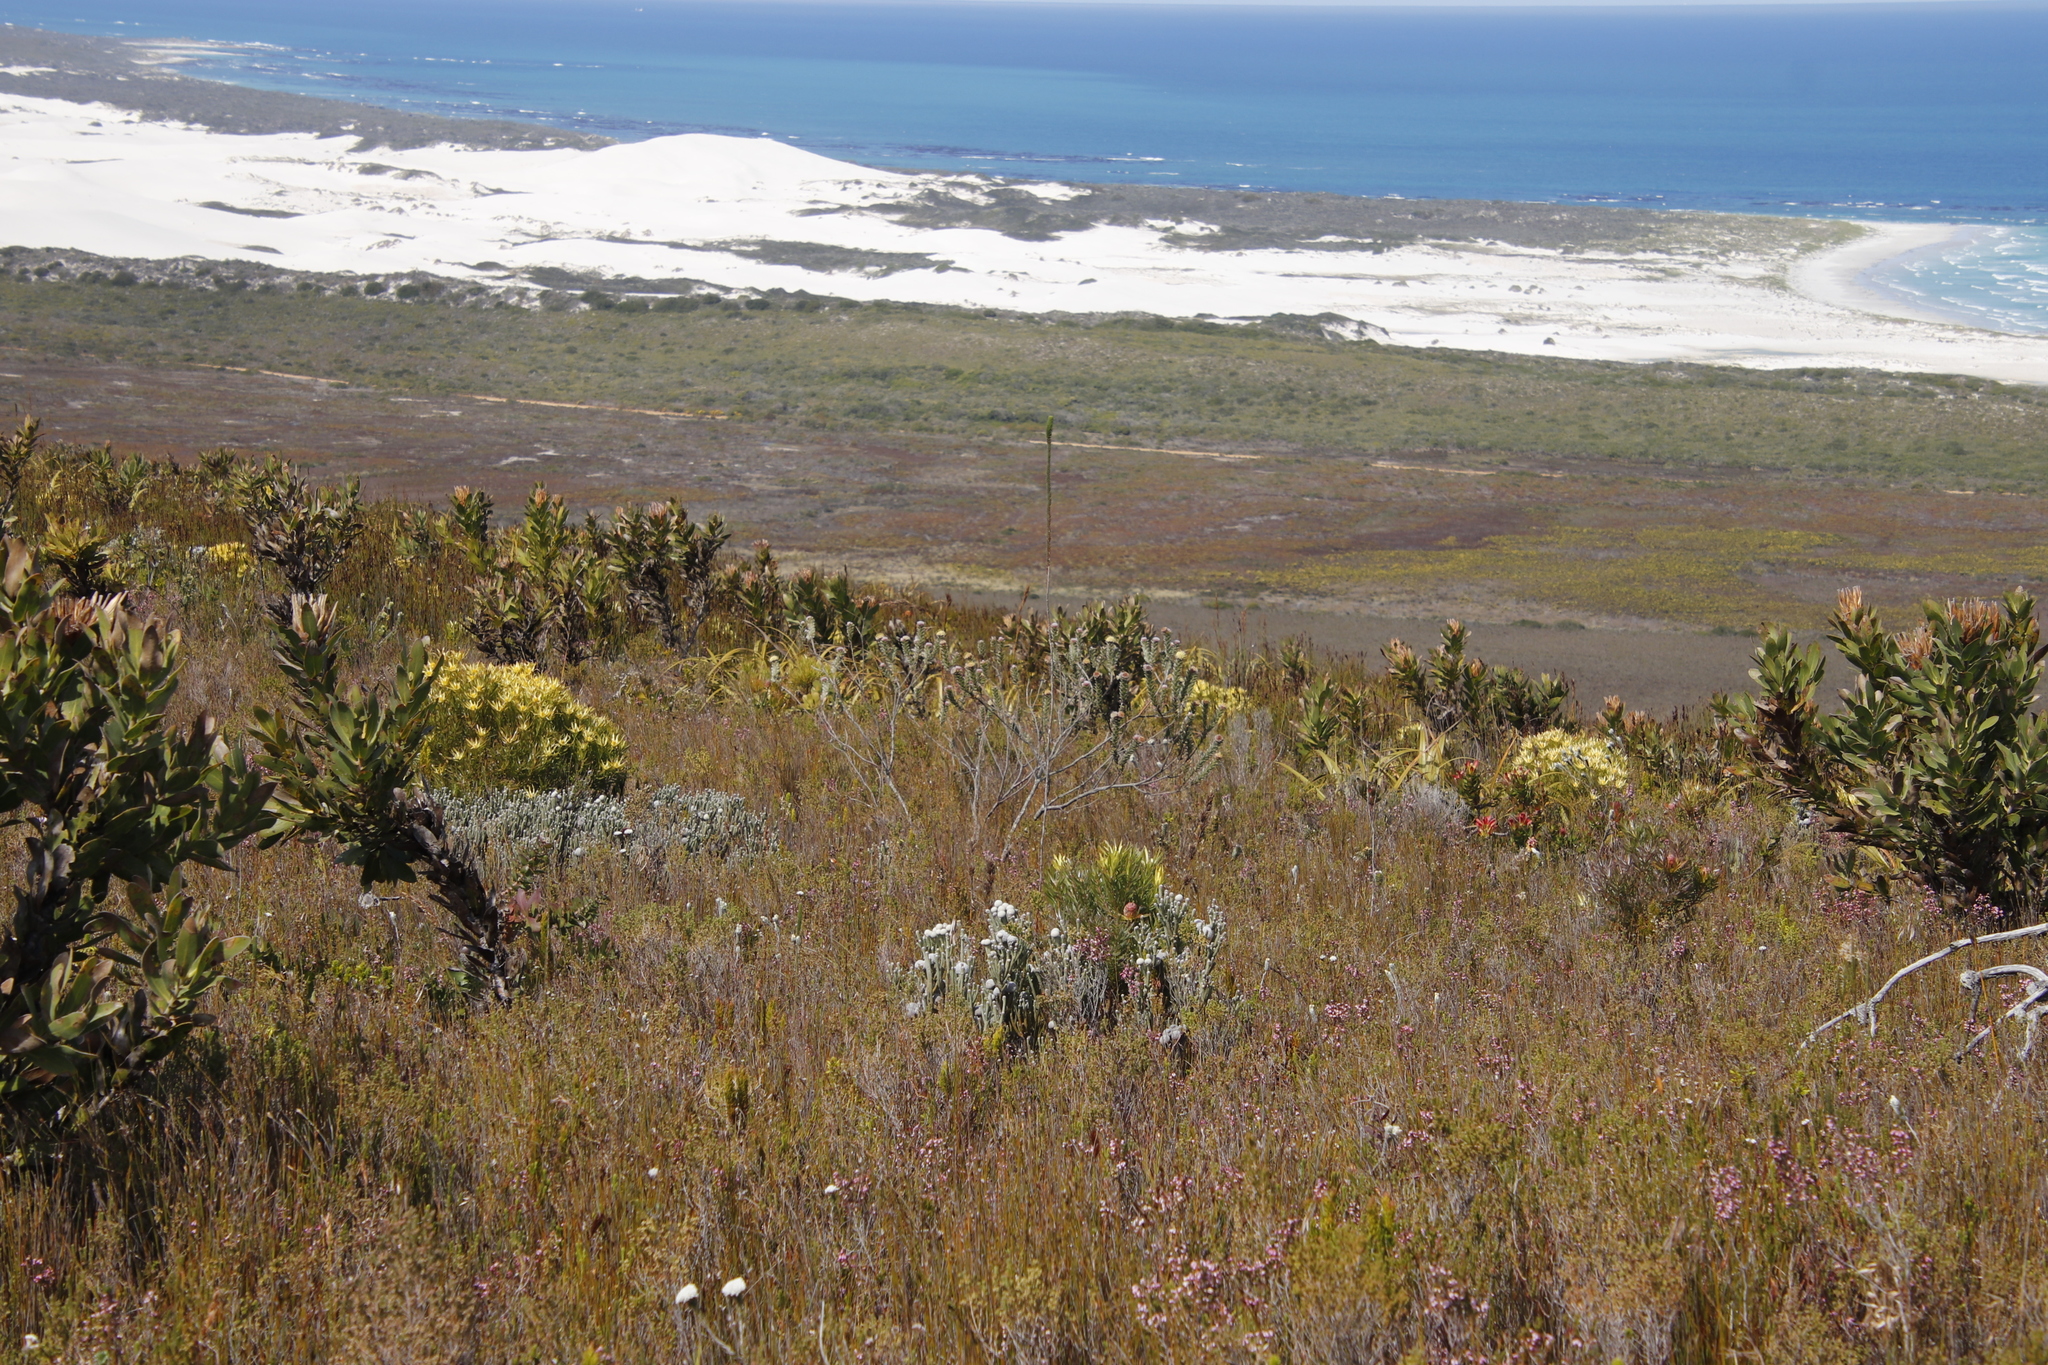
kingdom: Plantae
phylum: Tracheophyta
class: Magnoliopsida
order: Ericales
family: Ericaceae
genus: Erica
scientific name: Erica fascicularis
